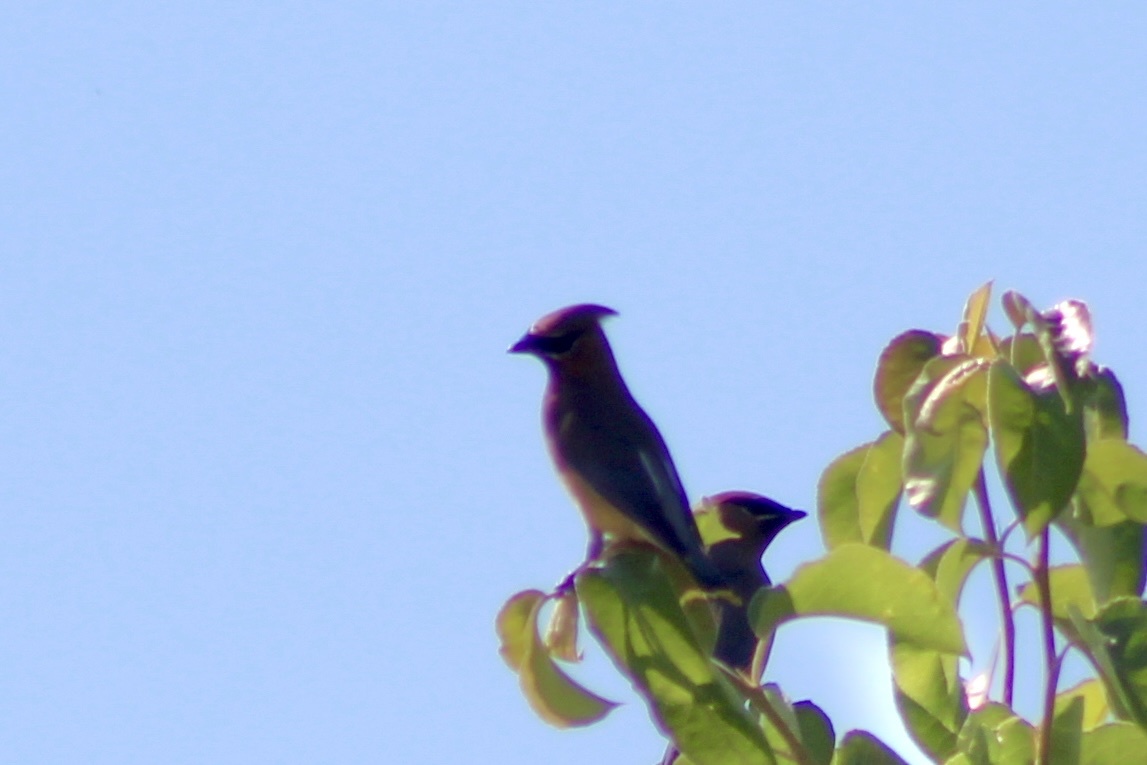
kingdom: Animalia
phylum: Chordata
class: Aves
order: Passeriformes
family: Bombycillidae
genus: Bombycilla
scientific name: Bombycilla cedrorum
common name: Cedar waxwing
